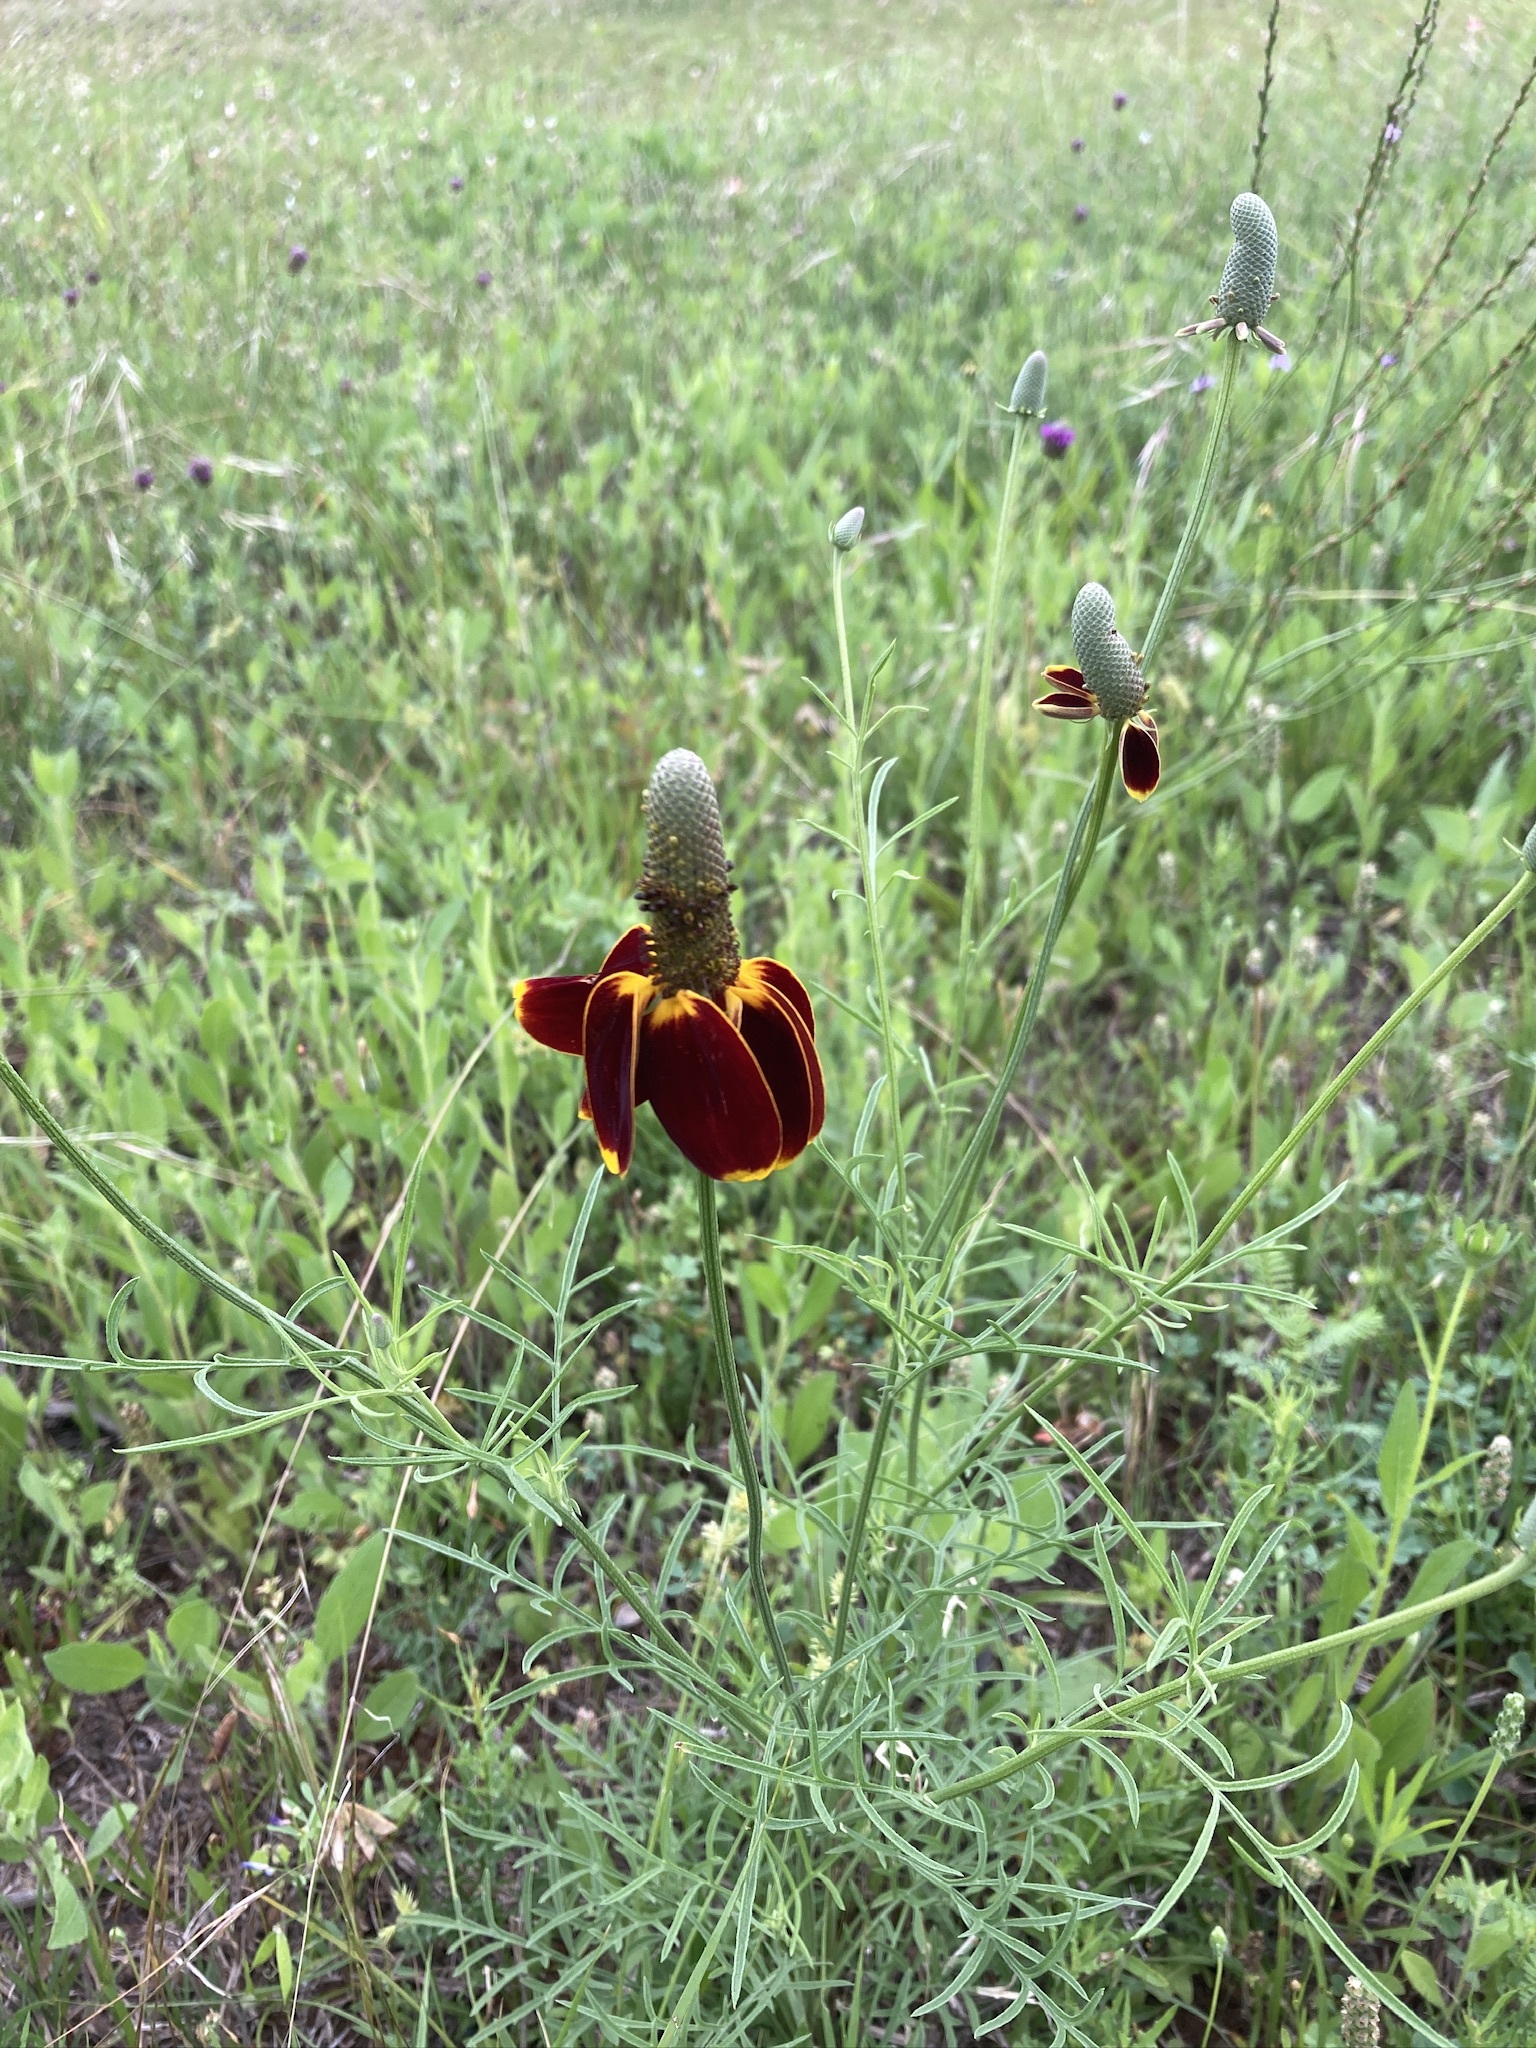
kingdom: Plantae
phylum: Tracheophyta
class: Magnoliopsida
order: Asterales
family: Asteraceae
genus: Ratibida
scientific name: Ratibida columnifera
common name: Prairie coneflower
